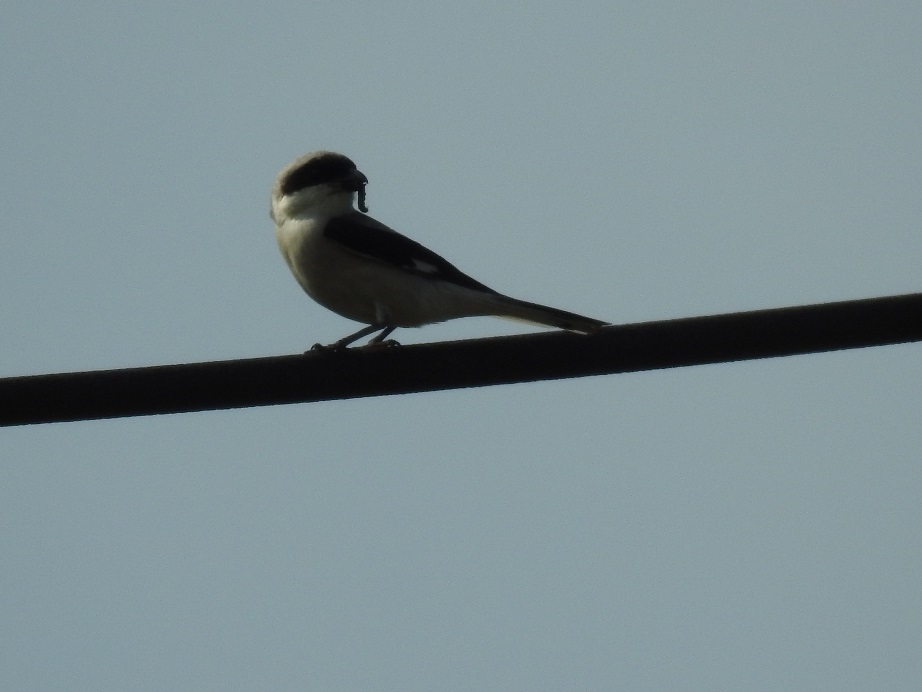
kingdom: Animalia
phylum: Chordata
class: Aves
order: Passeriformes
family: Laniidae
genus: Lanius
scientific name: Lanius minor
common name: Lesser grey shrike
